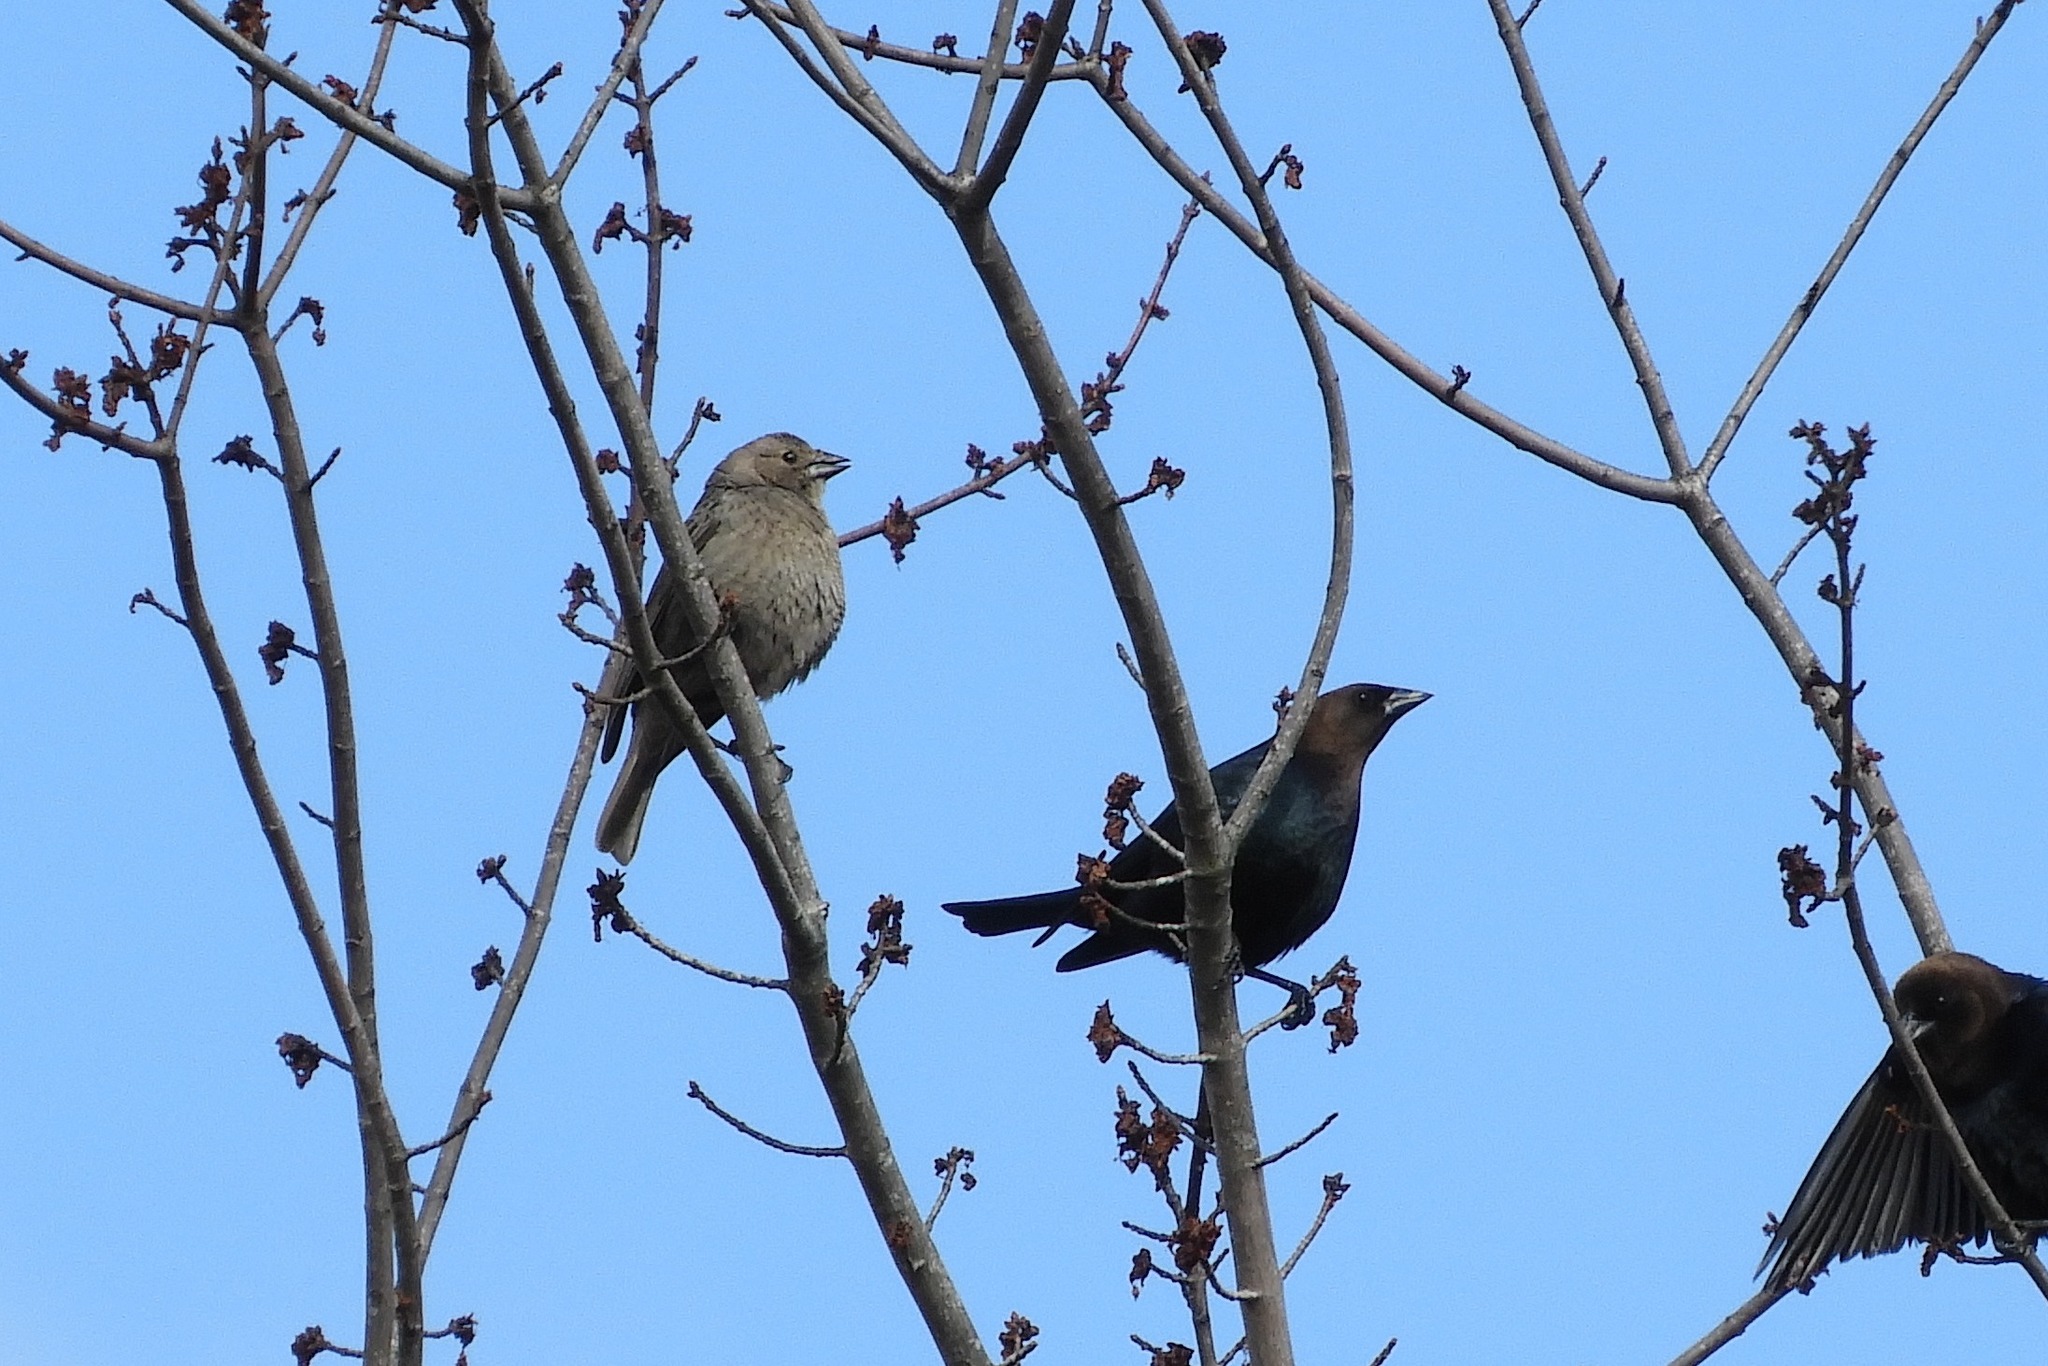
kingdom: Animalia
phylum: Chordata
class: Aves
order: Passeriformes
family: Icteridae
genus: Molothrus
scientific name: Molothrus ater
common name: Brown-headed cowbird
